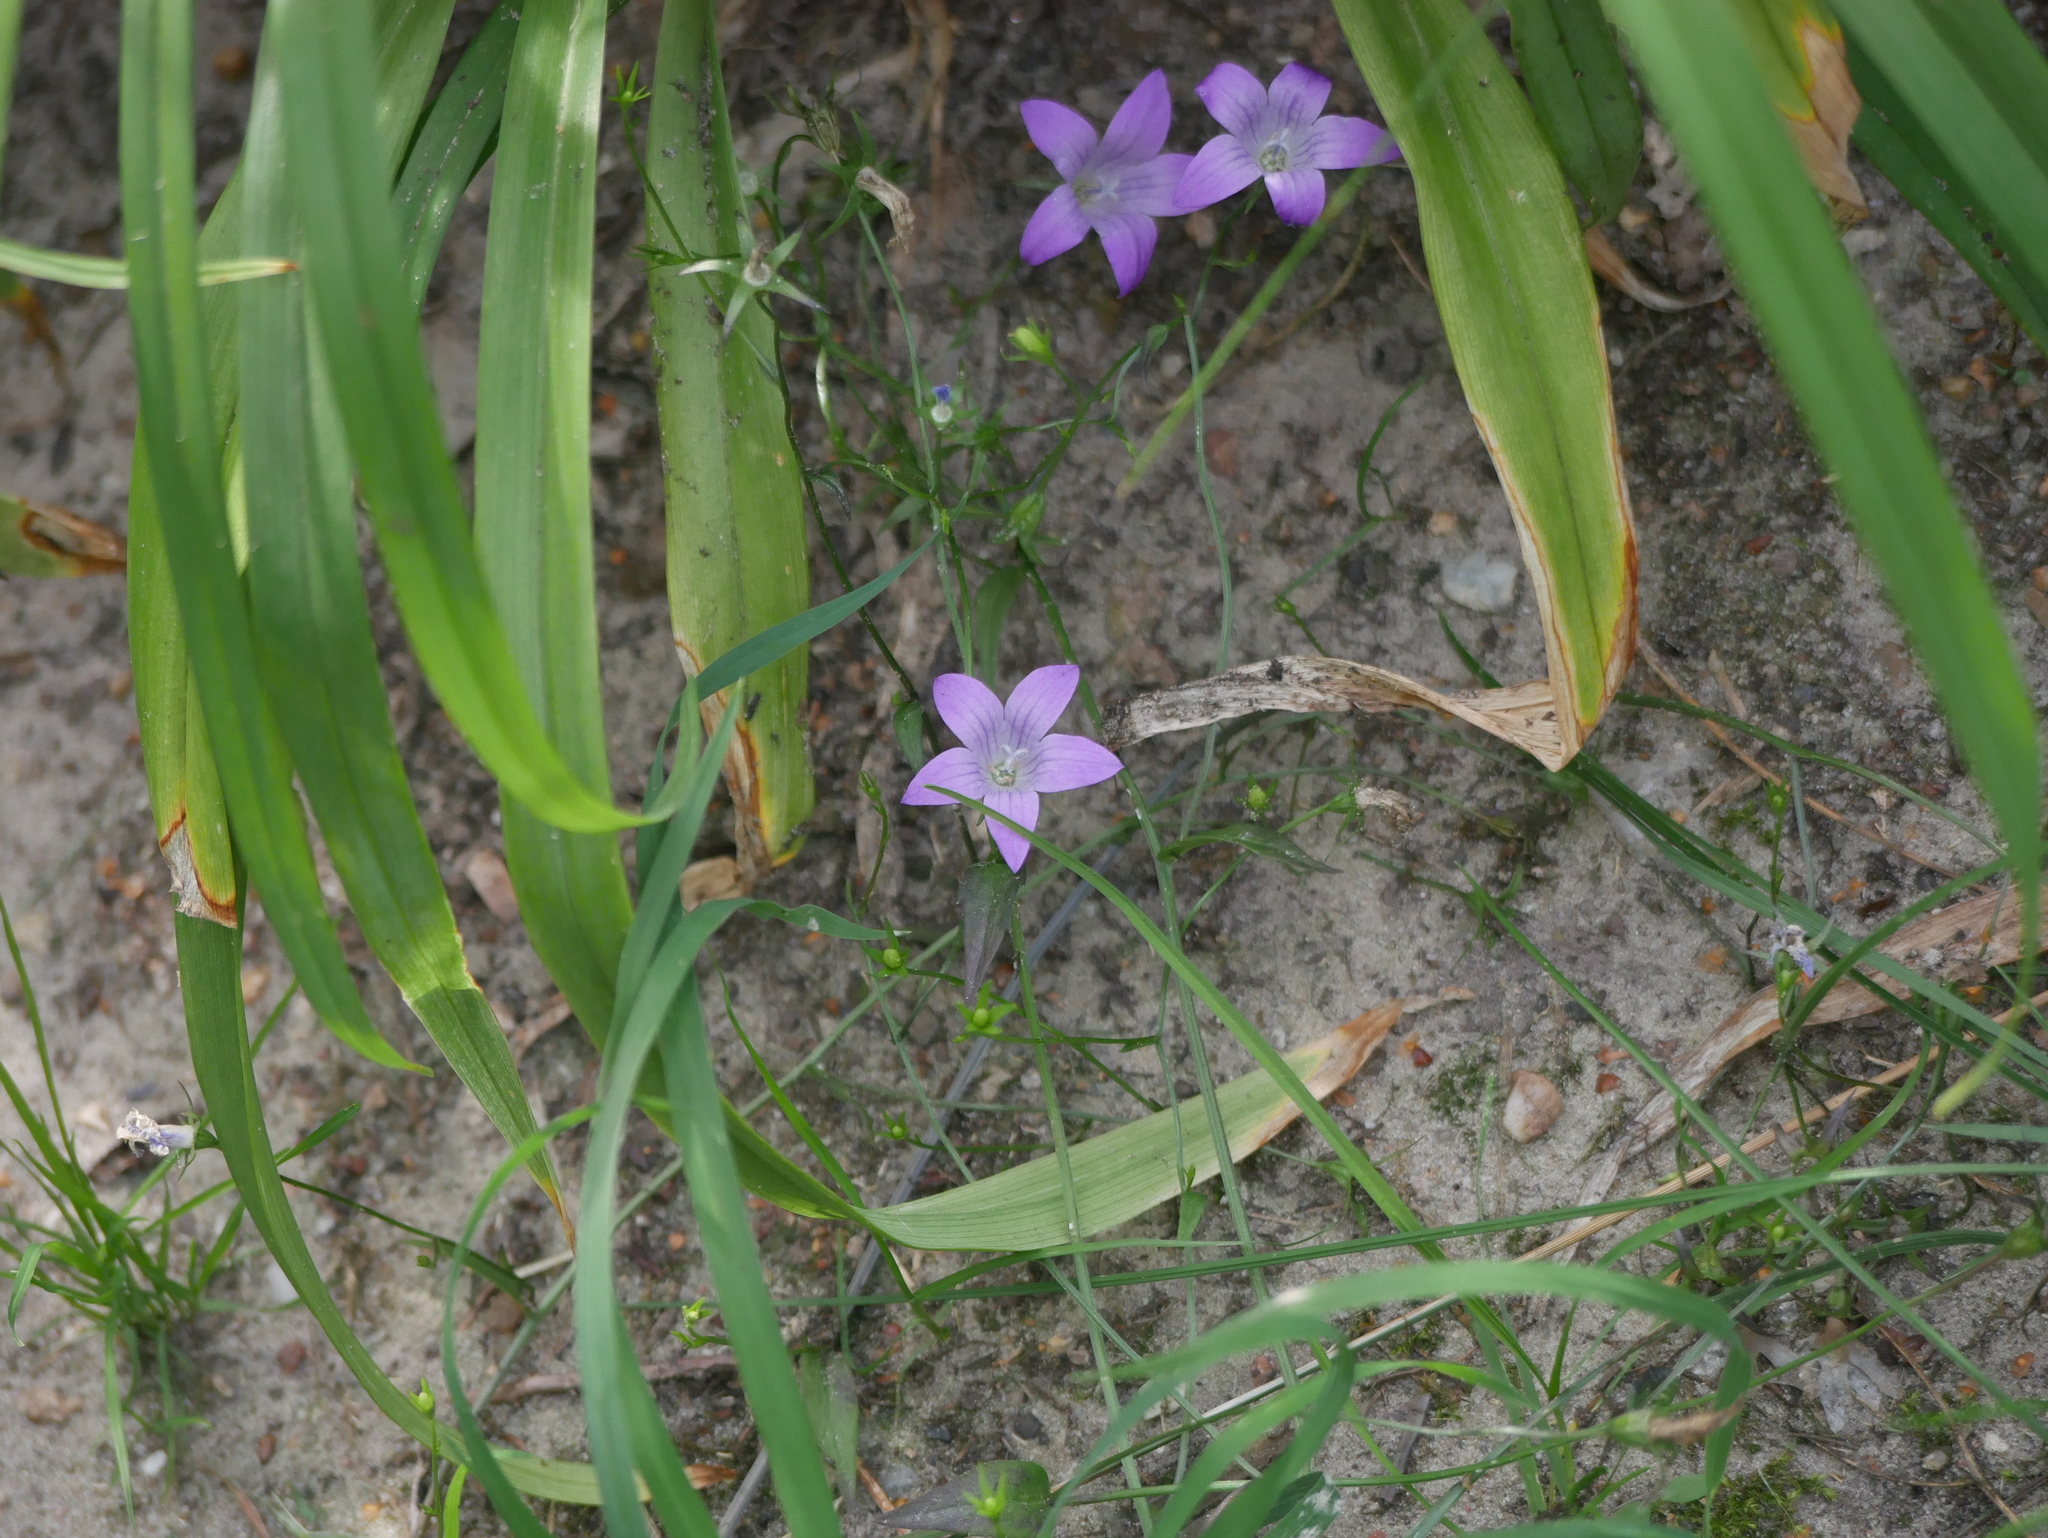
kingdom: Plantae
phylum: Tracheophyta
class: Magnoliopsida
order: Asterales
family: Campanulaceae
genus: Campanula
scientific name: Campanula patula
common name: Spreading bellflower
